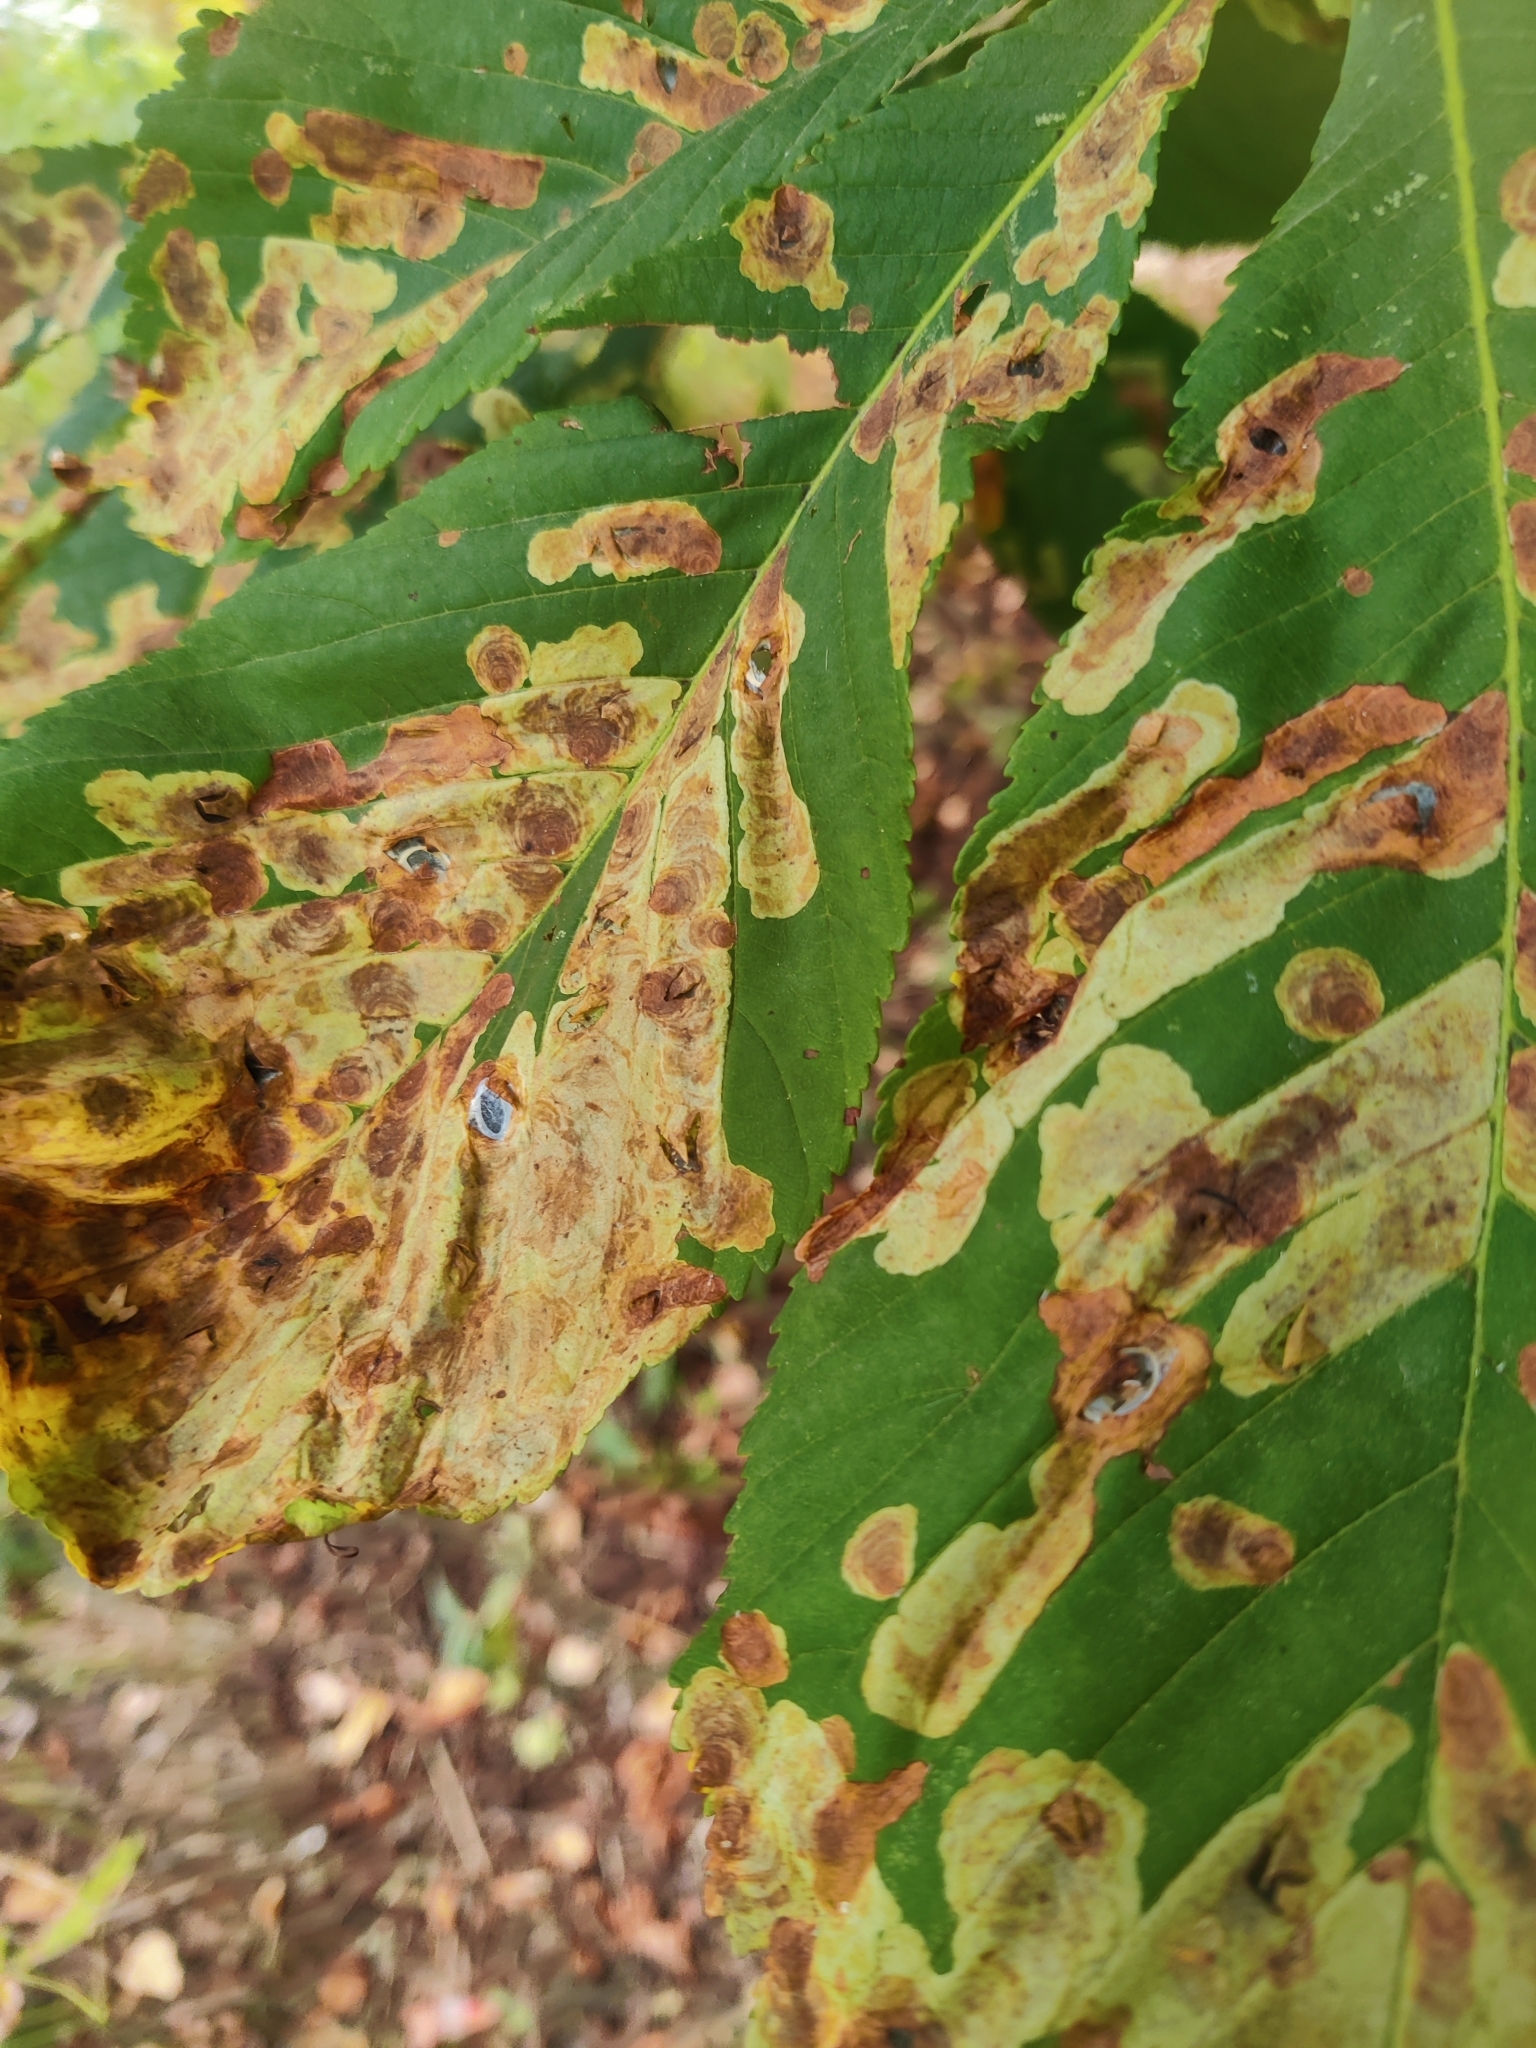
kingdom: Animalia
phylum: Arthropoda
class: Insecta
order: Lepidoptera
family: Gracillariidae
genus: Cameraria
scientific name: Cameraria ohridella
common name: Horse-chestnut leaf-miner
